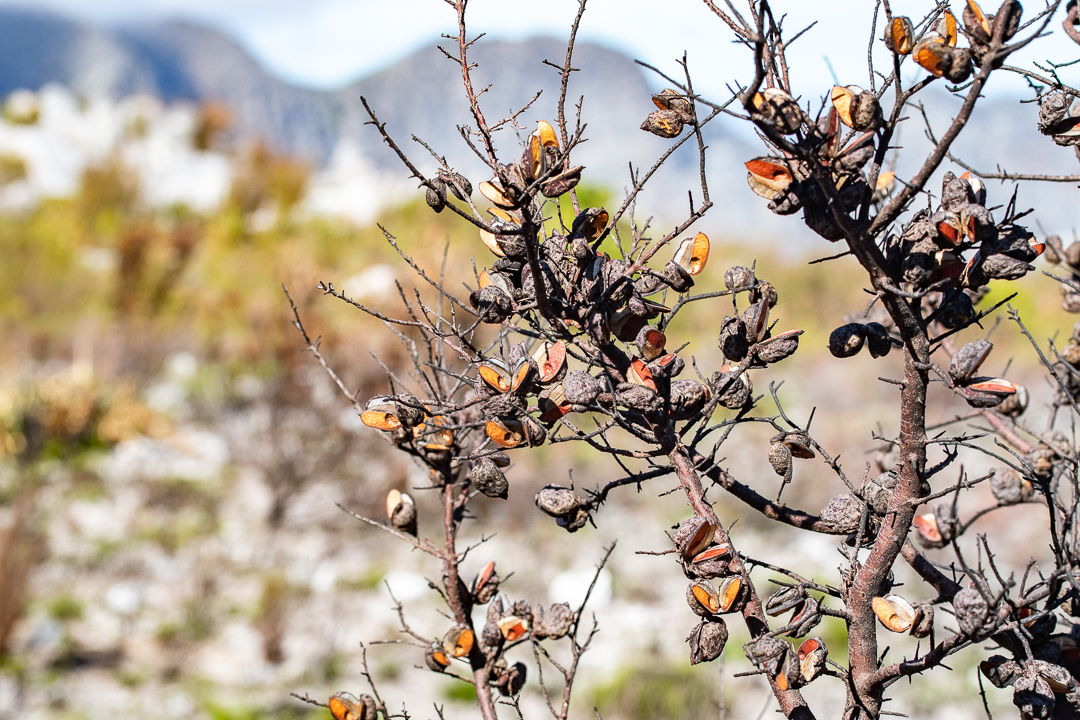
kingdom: Plantae
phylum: Tracheophyta
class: Magnoliopsida
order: Proteales
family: Proteaceae
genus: Hakea
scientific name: Hakea sericea
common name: Needle bush
